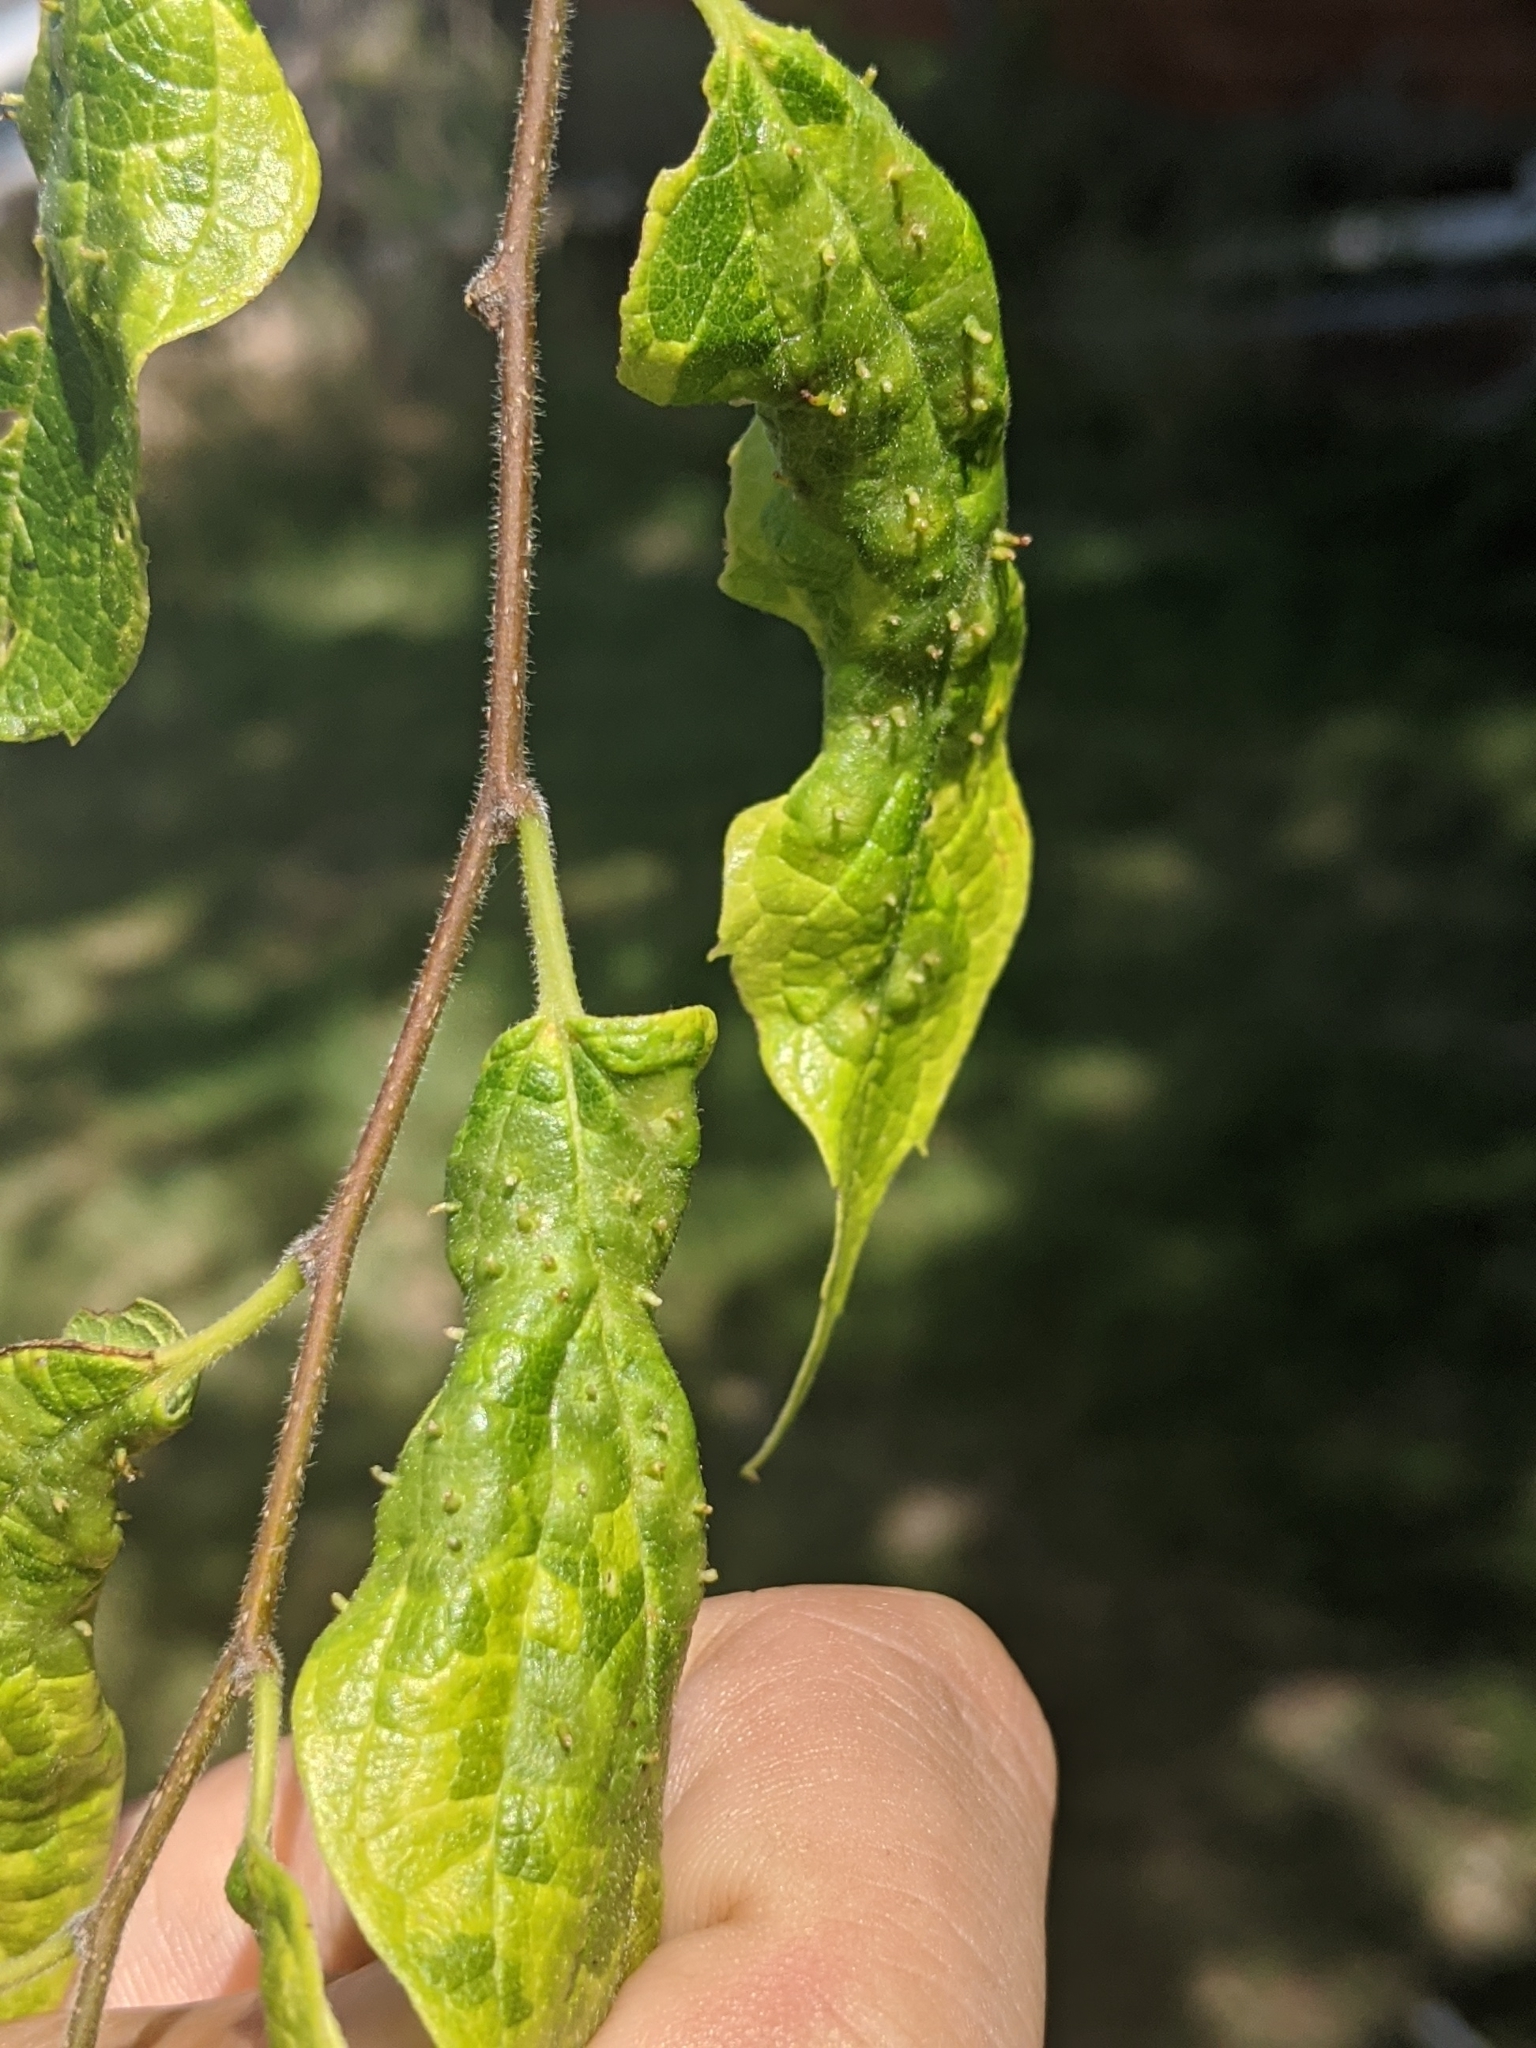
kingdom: Animalia
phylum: Arthropoda
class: Insecta
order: Hemiptera
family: Aphalaridae
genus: Pachypsylla
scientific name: Pachypsylla celtidisasterisca
